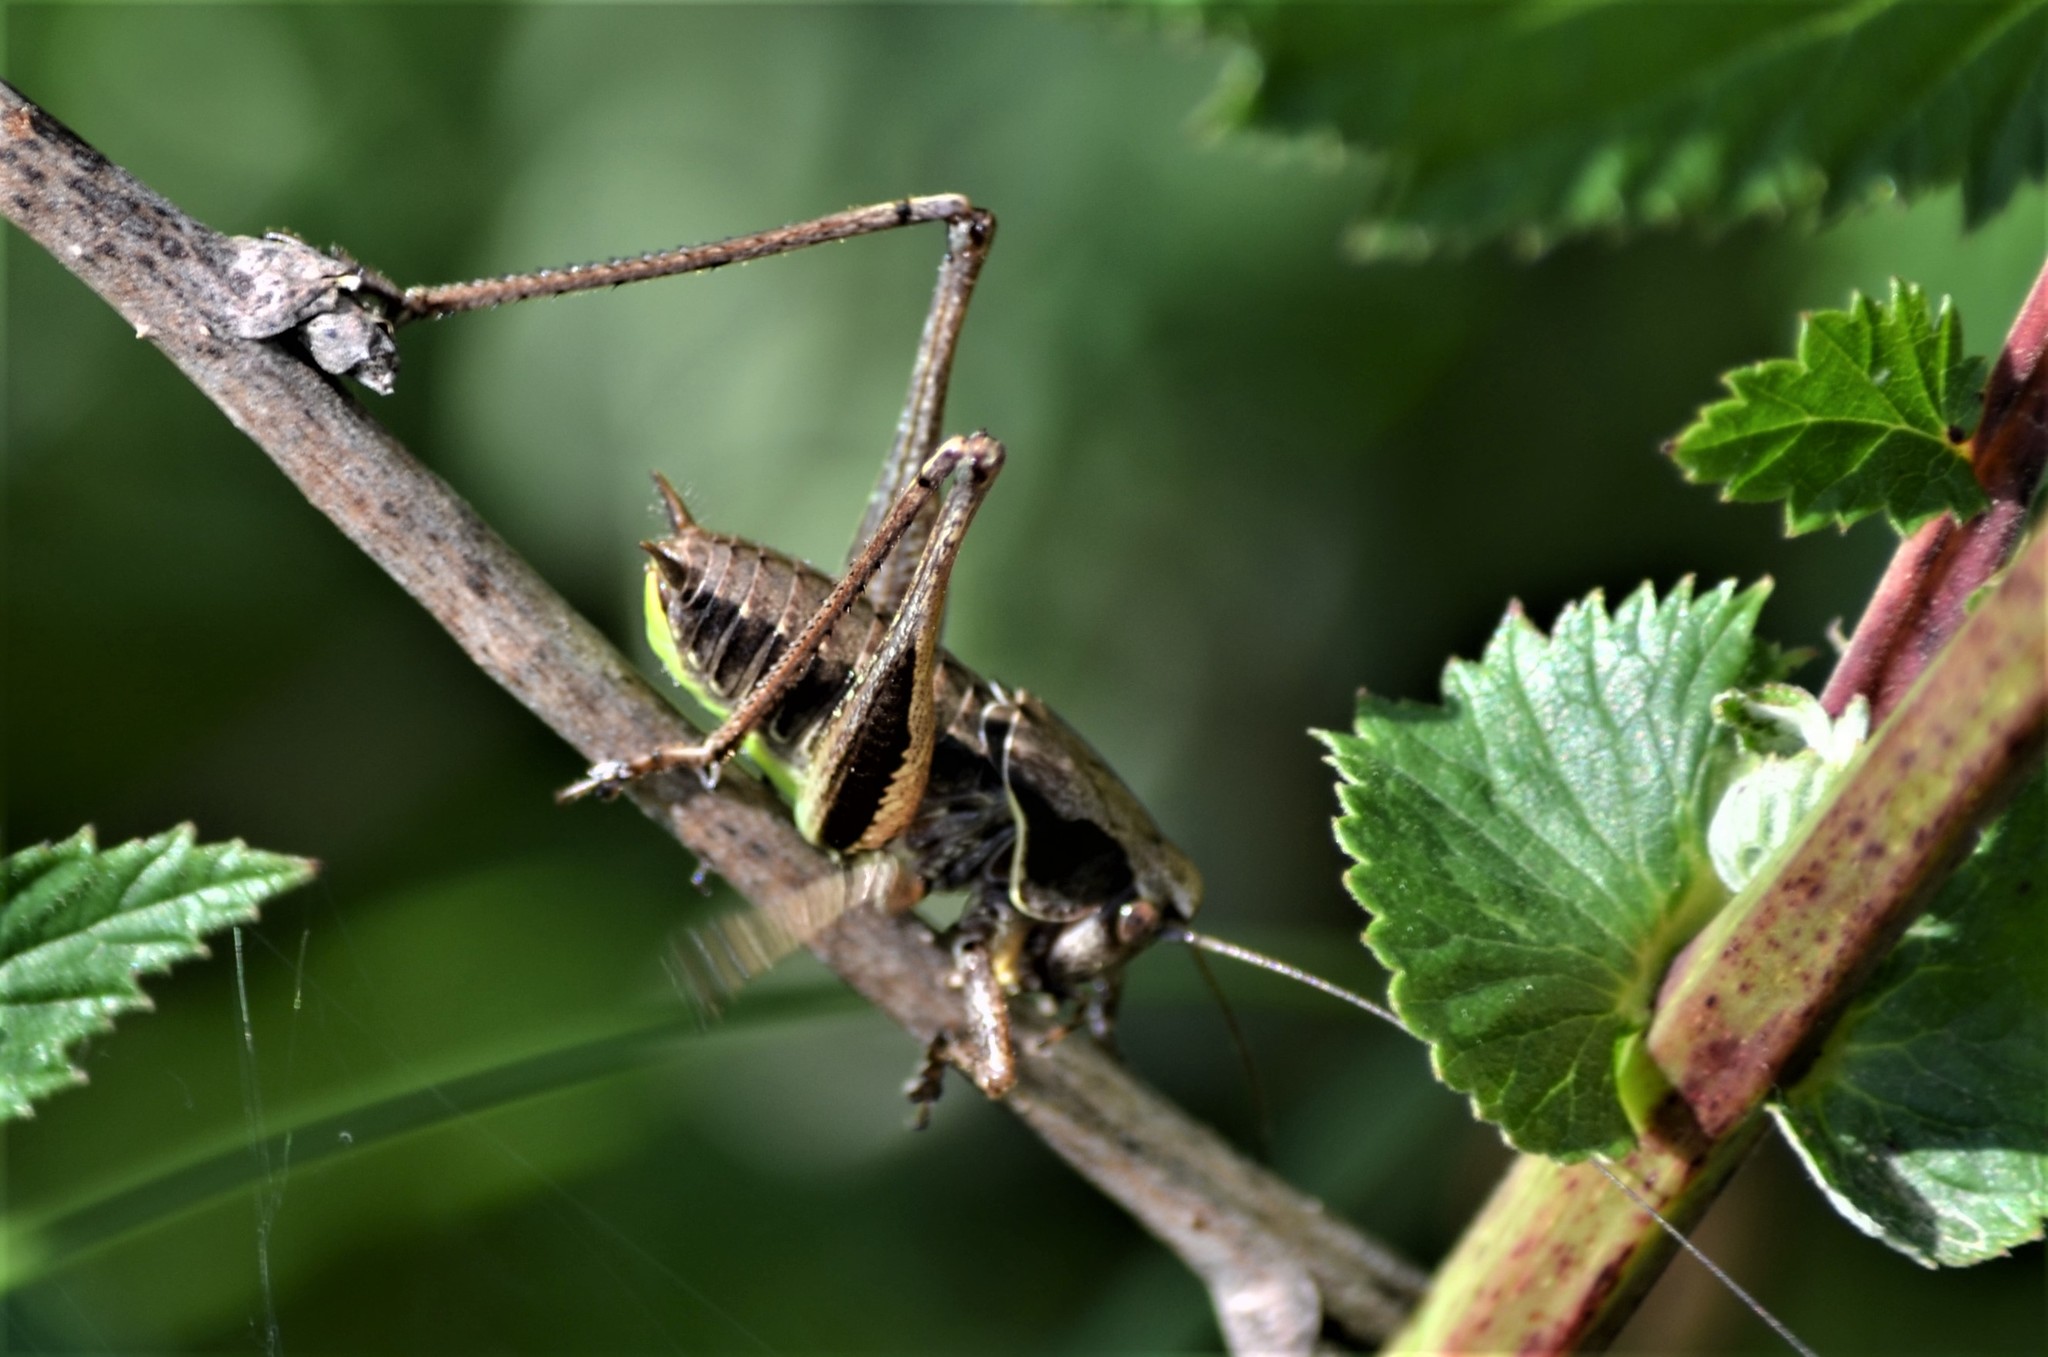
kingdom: Animalia
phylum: Arthropoda
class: Insecta
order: Orthoptera
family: Tettigoniidae
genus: Pholidoptera
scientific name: Pholidoptera griseoaptera
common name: Dark bush-cricket
